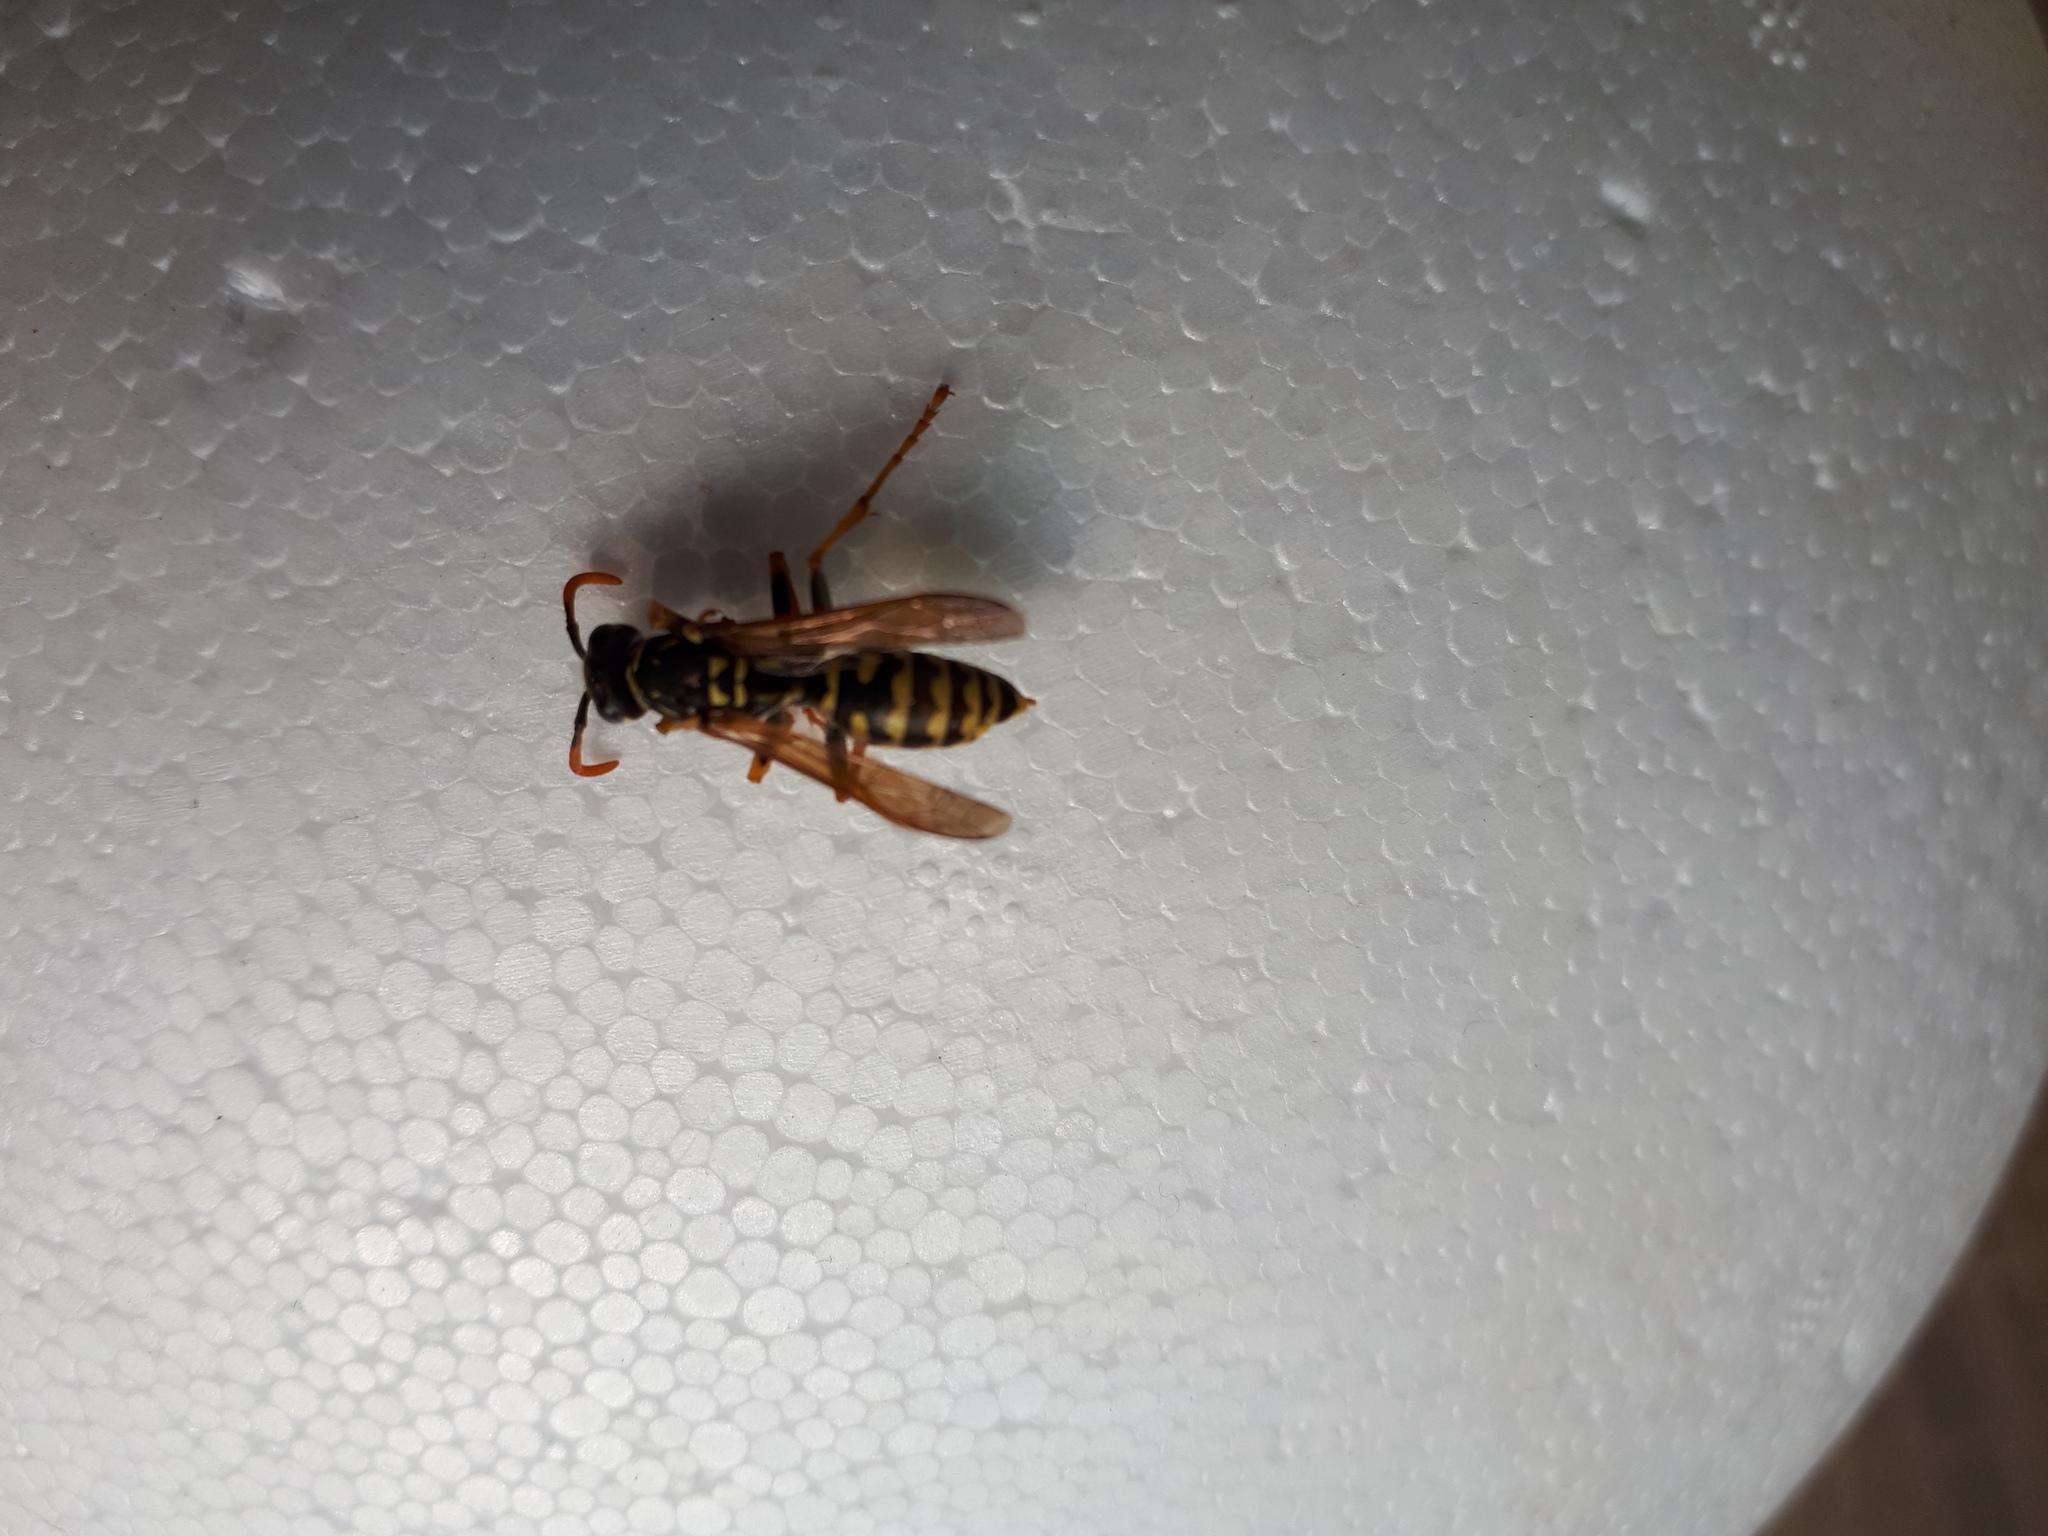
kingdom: Animalia
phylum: Arthropoda
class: Insecta
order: Hymenoptera
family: Eumenidae
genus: Polistes
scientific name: Polistes dominula
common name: Paper wasp
